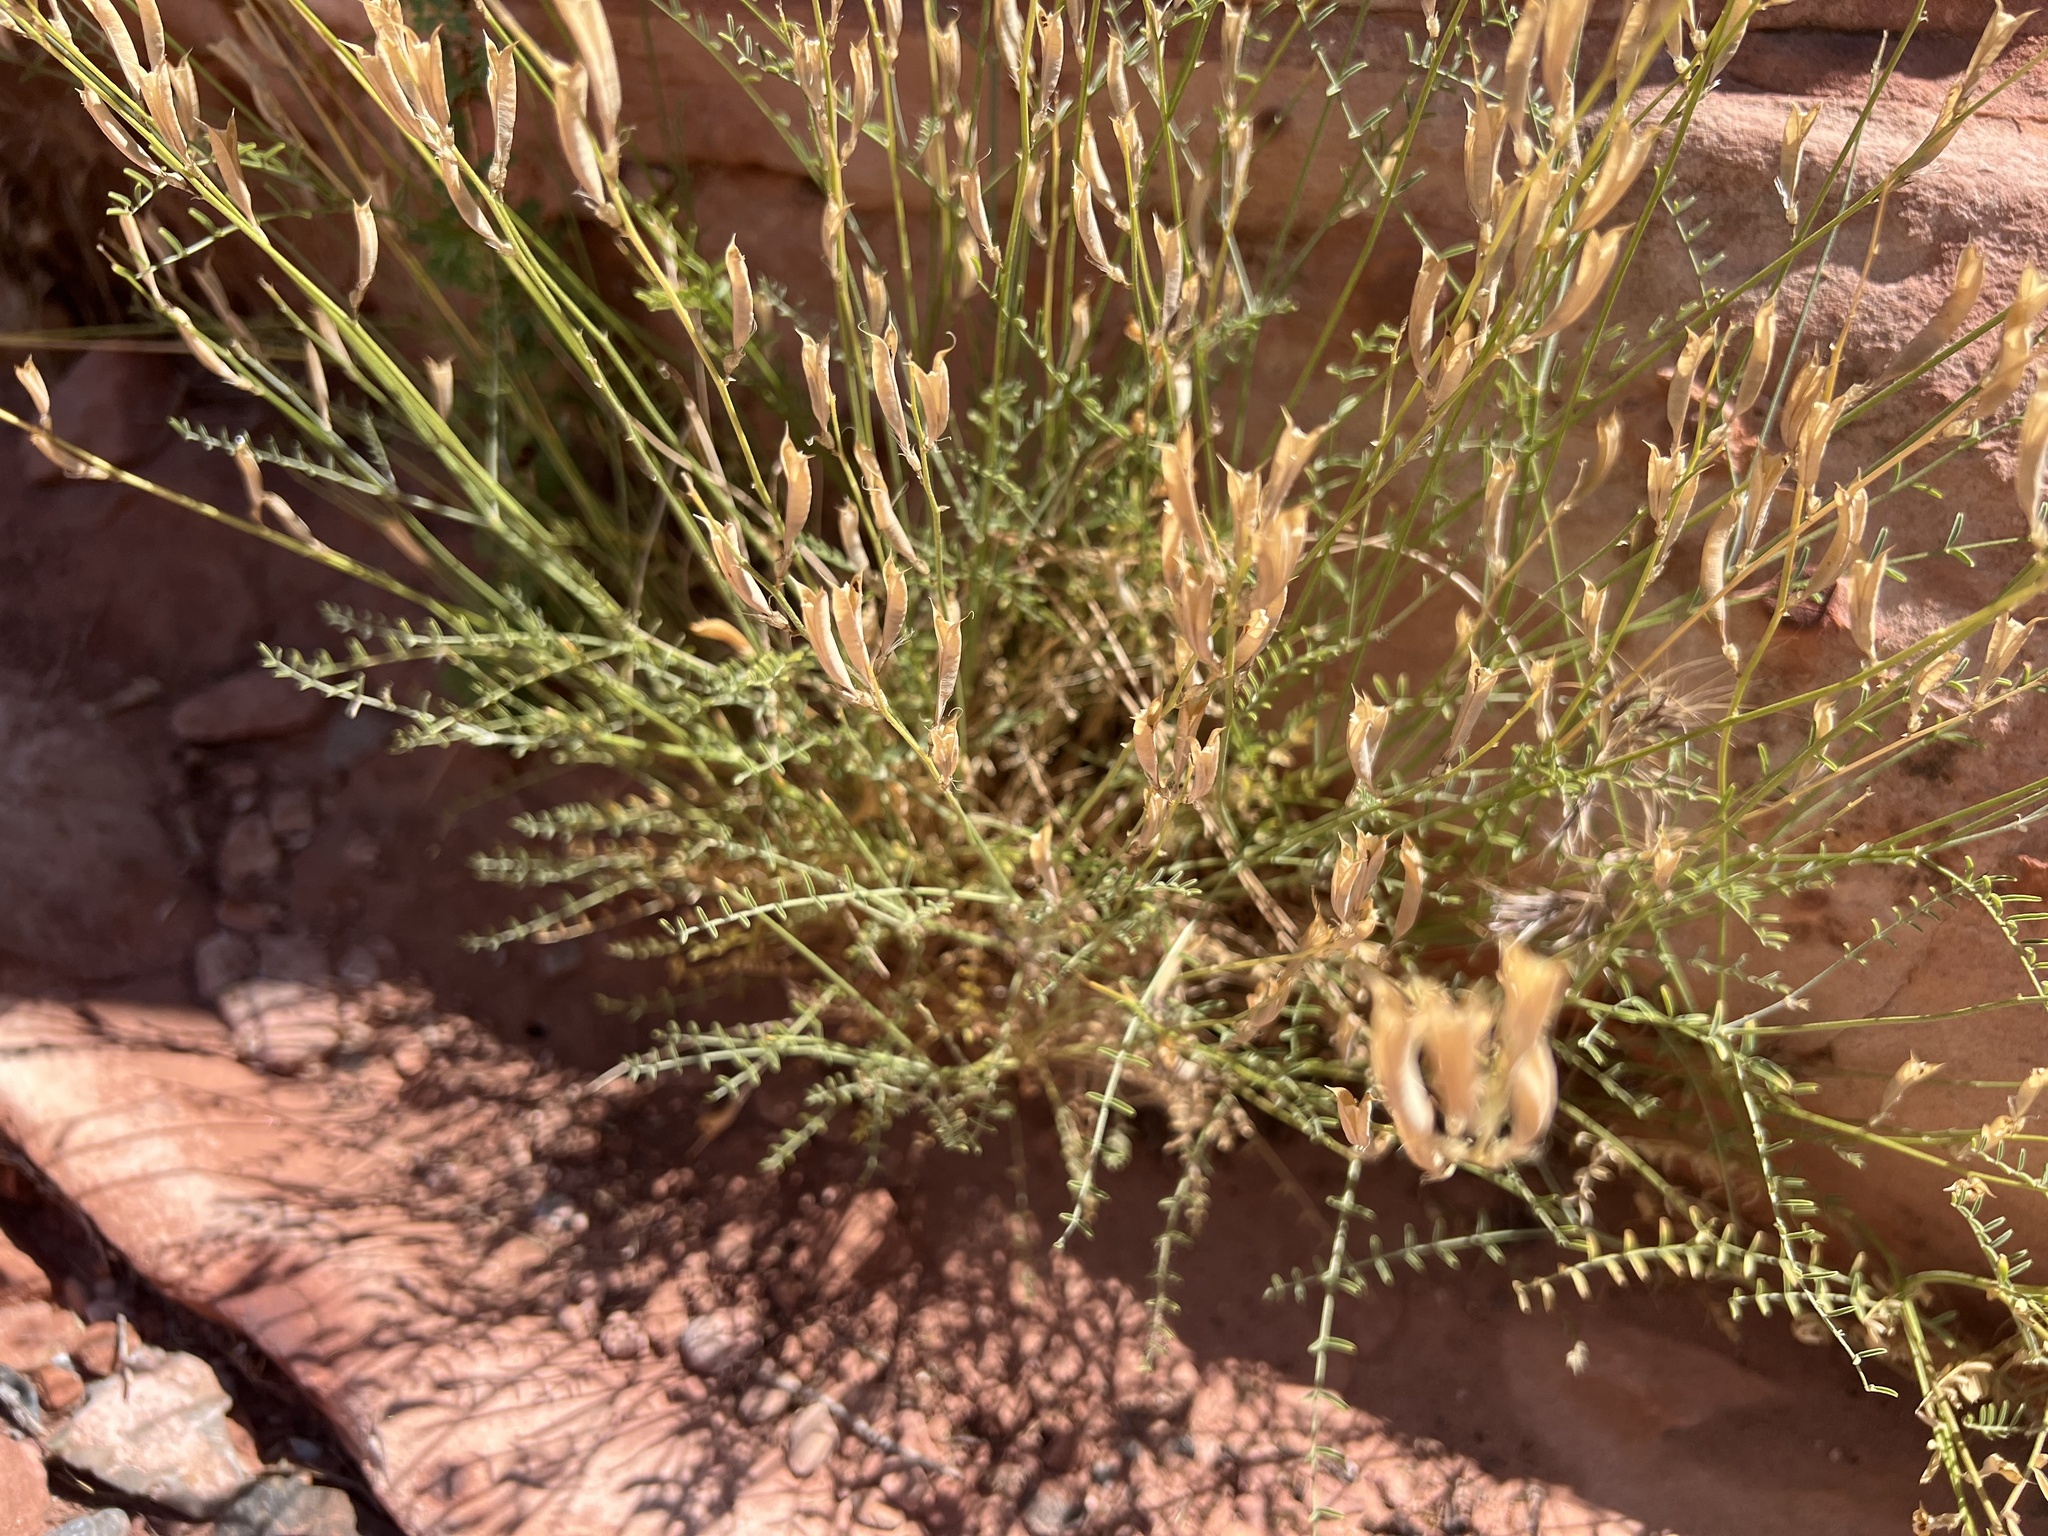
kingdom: Plantae
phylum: Tracheophyta
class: Magnoliopsida
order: Fabales
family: Fabaceae
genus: Astragalus
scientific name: Astragalus remotus
